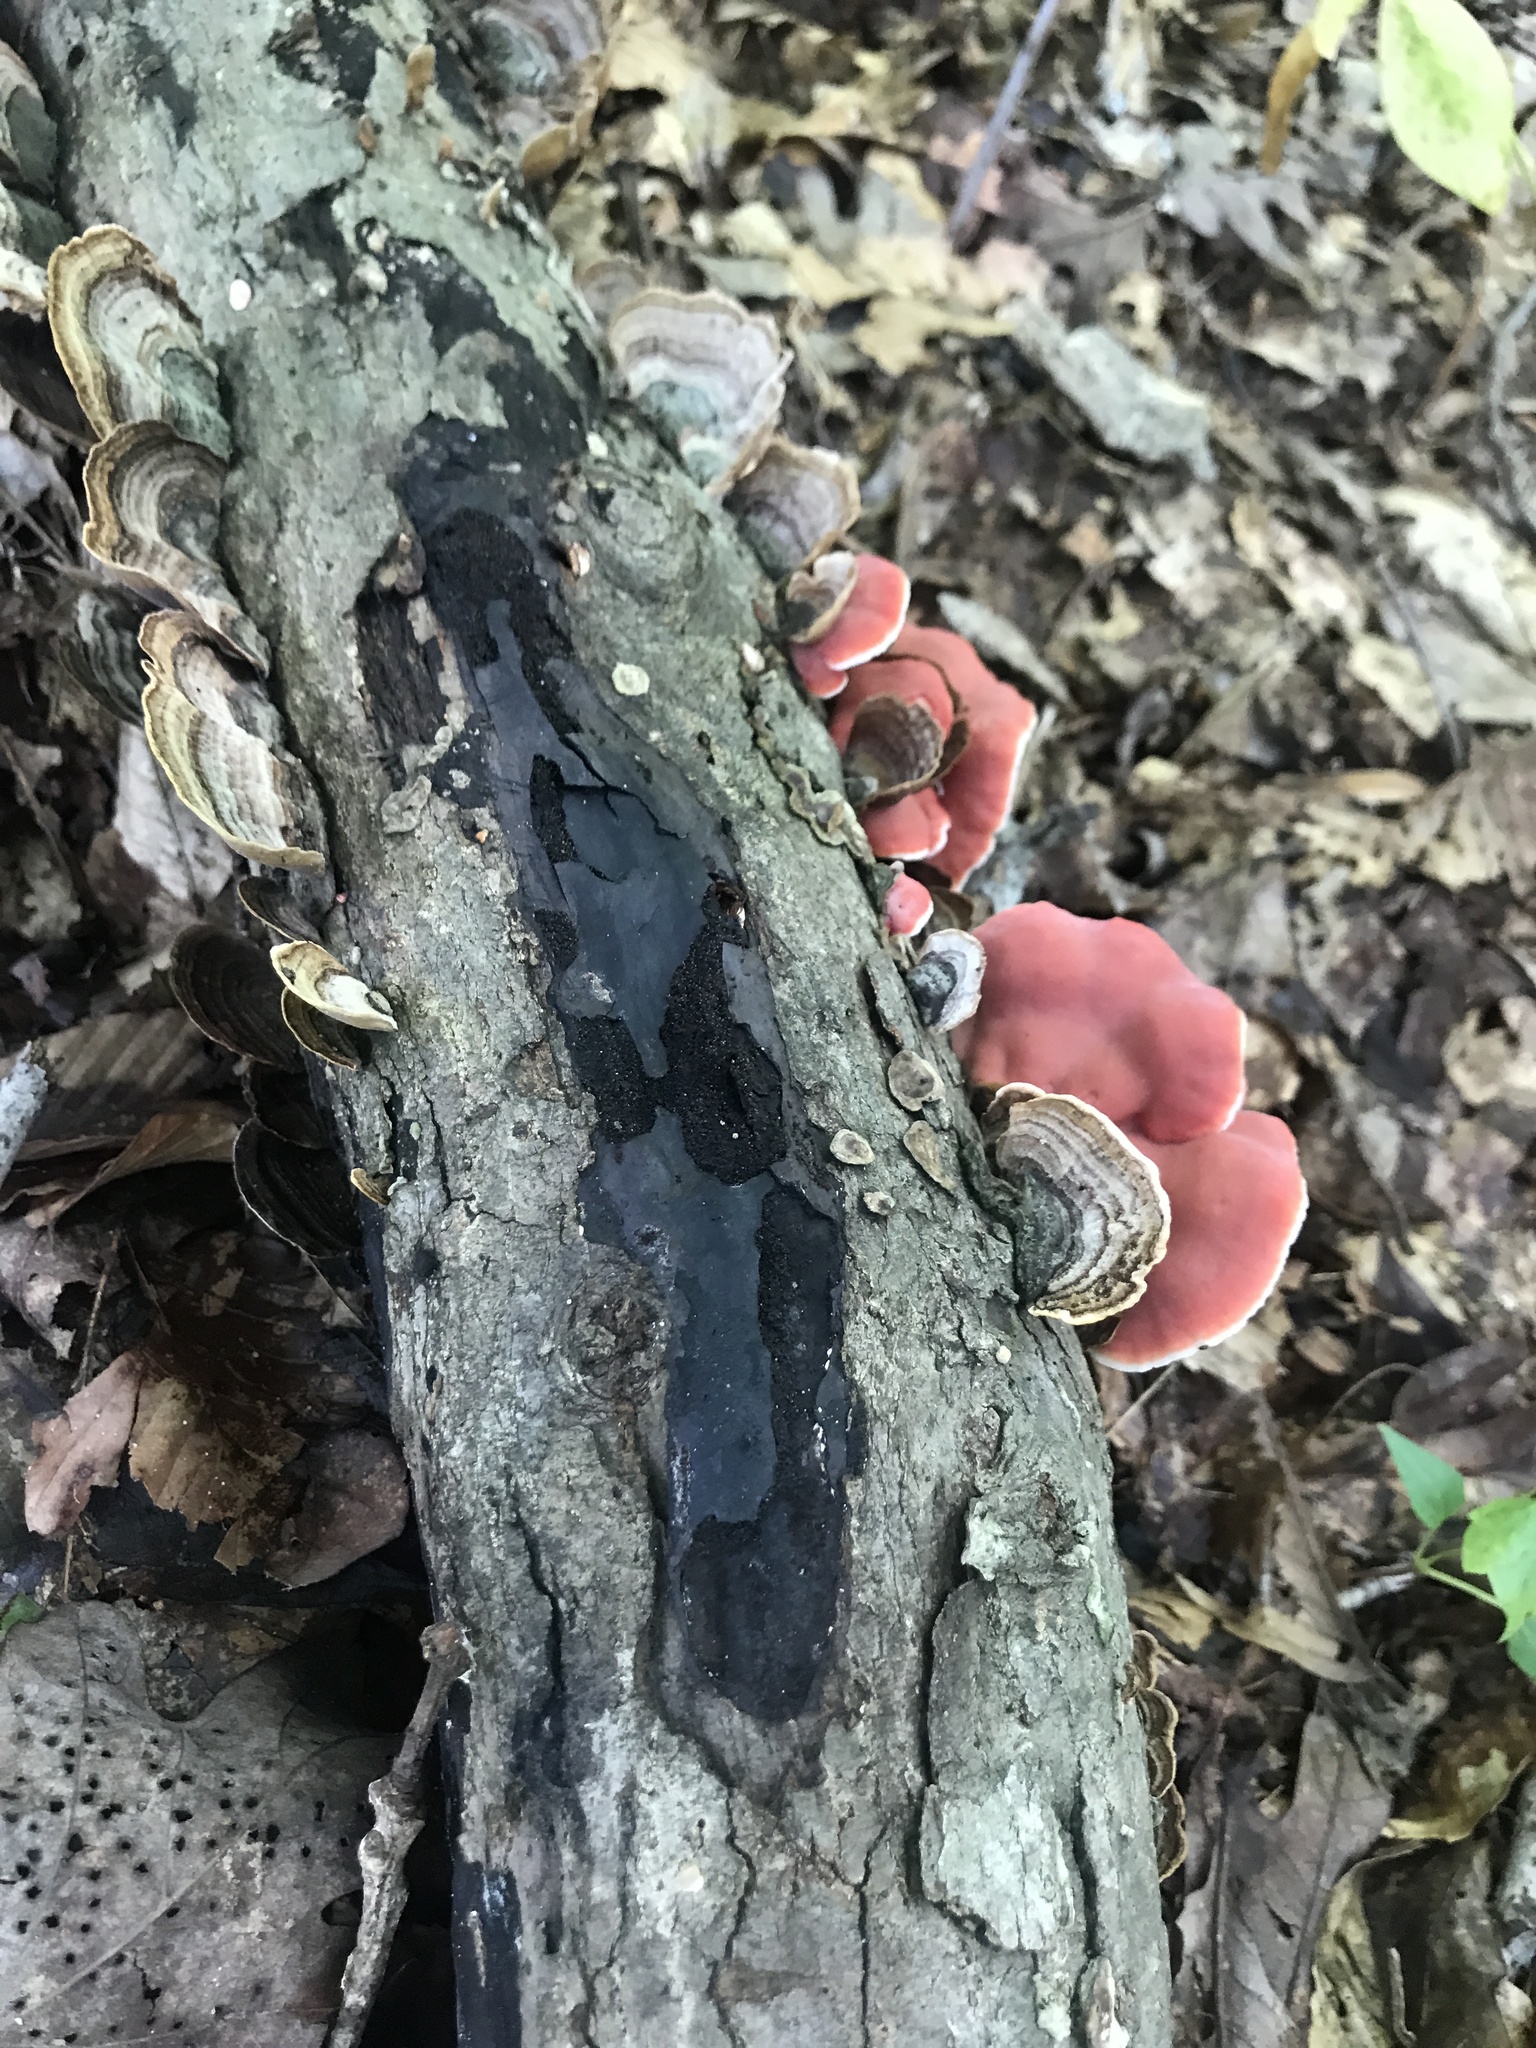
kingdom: Fungi
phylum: Basidiomycota
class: Agaricomycetes
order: Polyporales
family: Irpicaceae
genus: Byssomerulius
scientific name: Byssomerulius incarnatus
